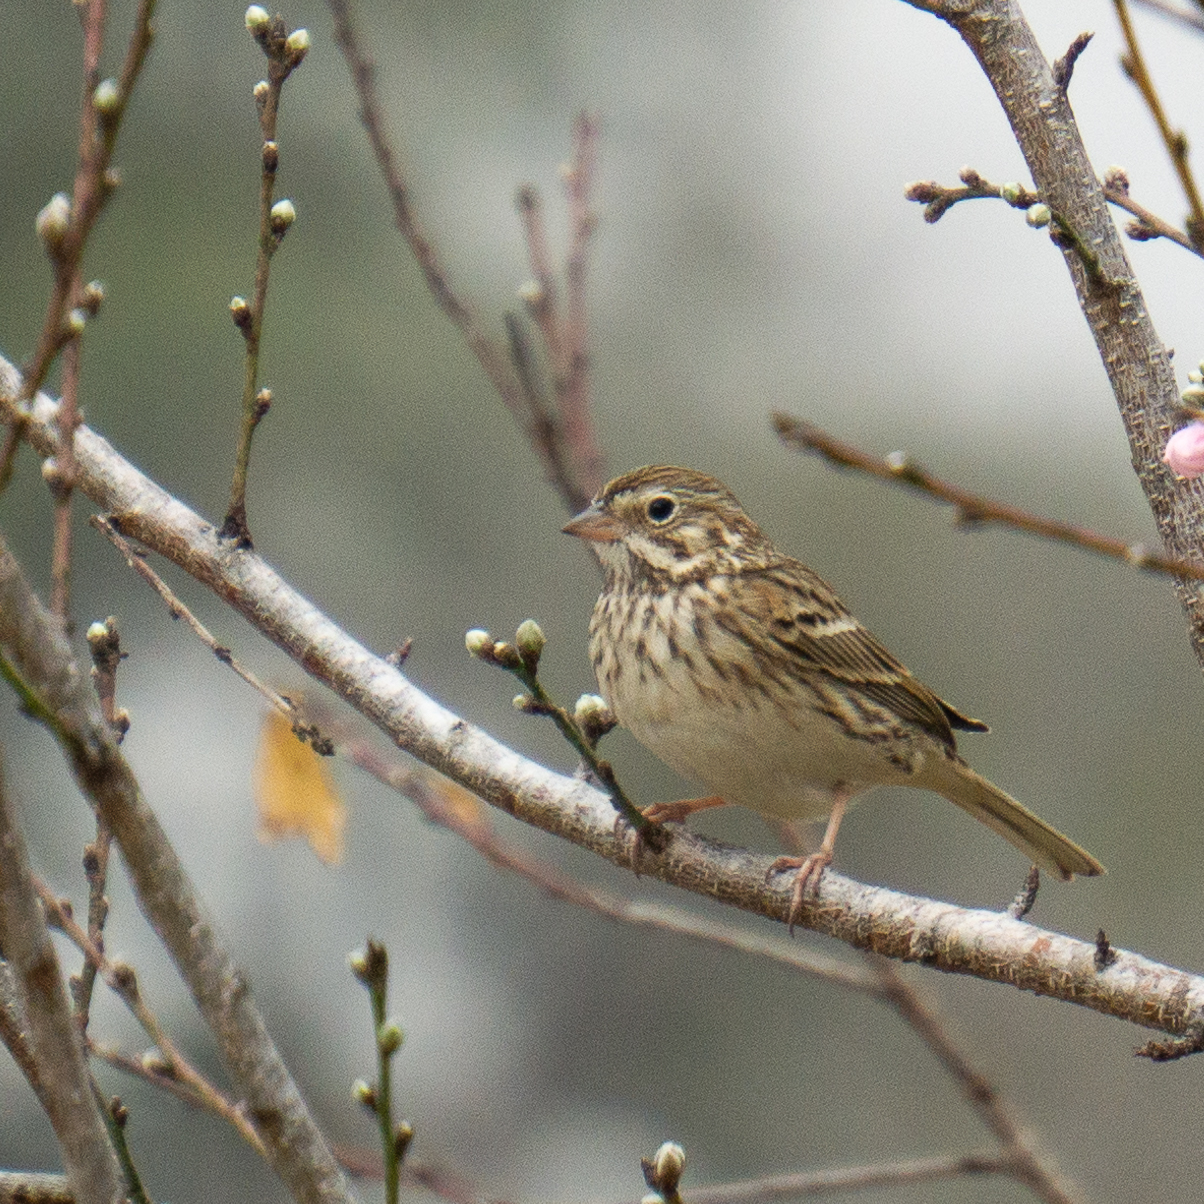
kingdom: Animalia
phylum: Chordata
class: Aves
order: Passeriformes
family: Passerellidae
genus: Pooecetes
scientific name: Pooecetes gramineus
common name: Vesper sparrow
